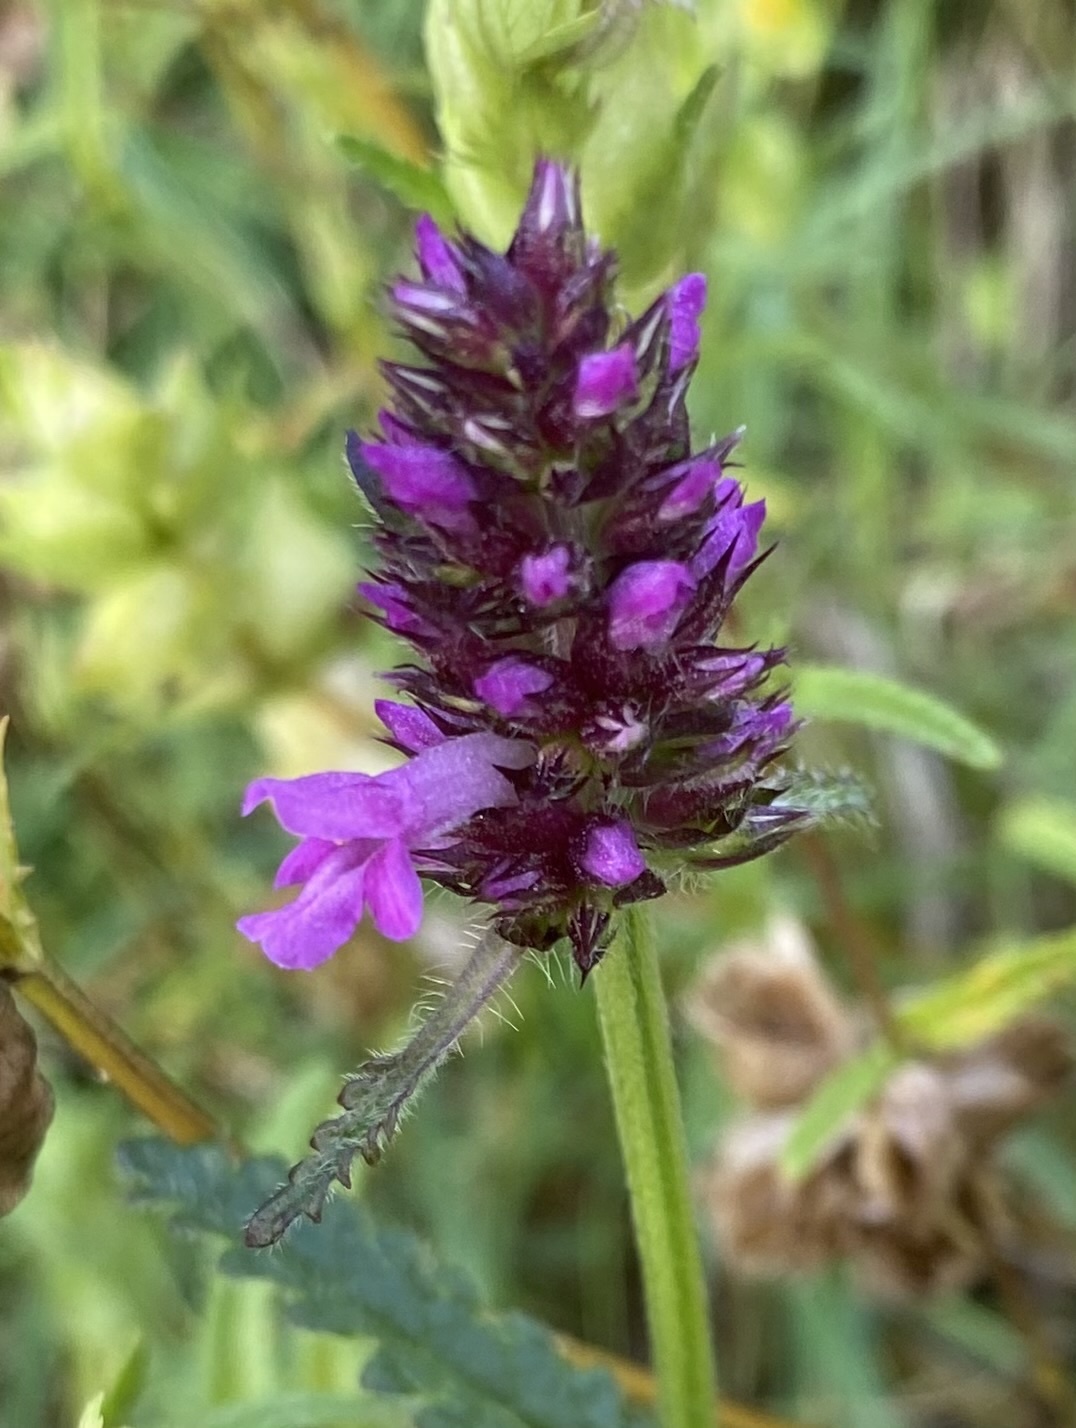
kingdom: Plantae
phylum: Tracheophyta
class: Magnoliopsida
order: Lamiales
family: Lamiaceae
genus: Betonica
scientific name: Betonica officinalis
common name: Bishop's-wort
